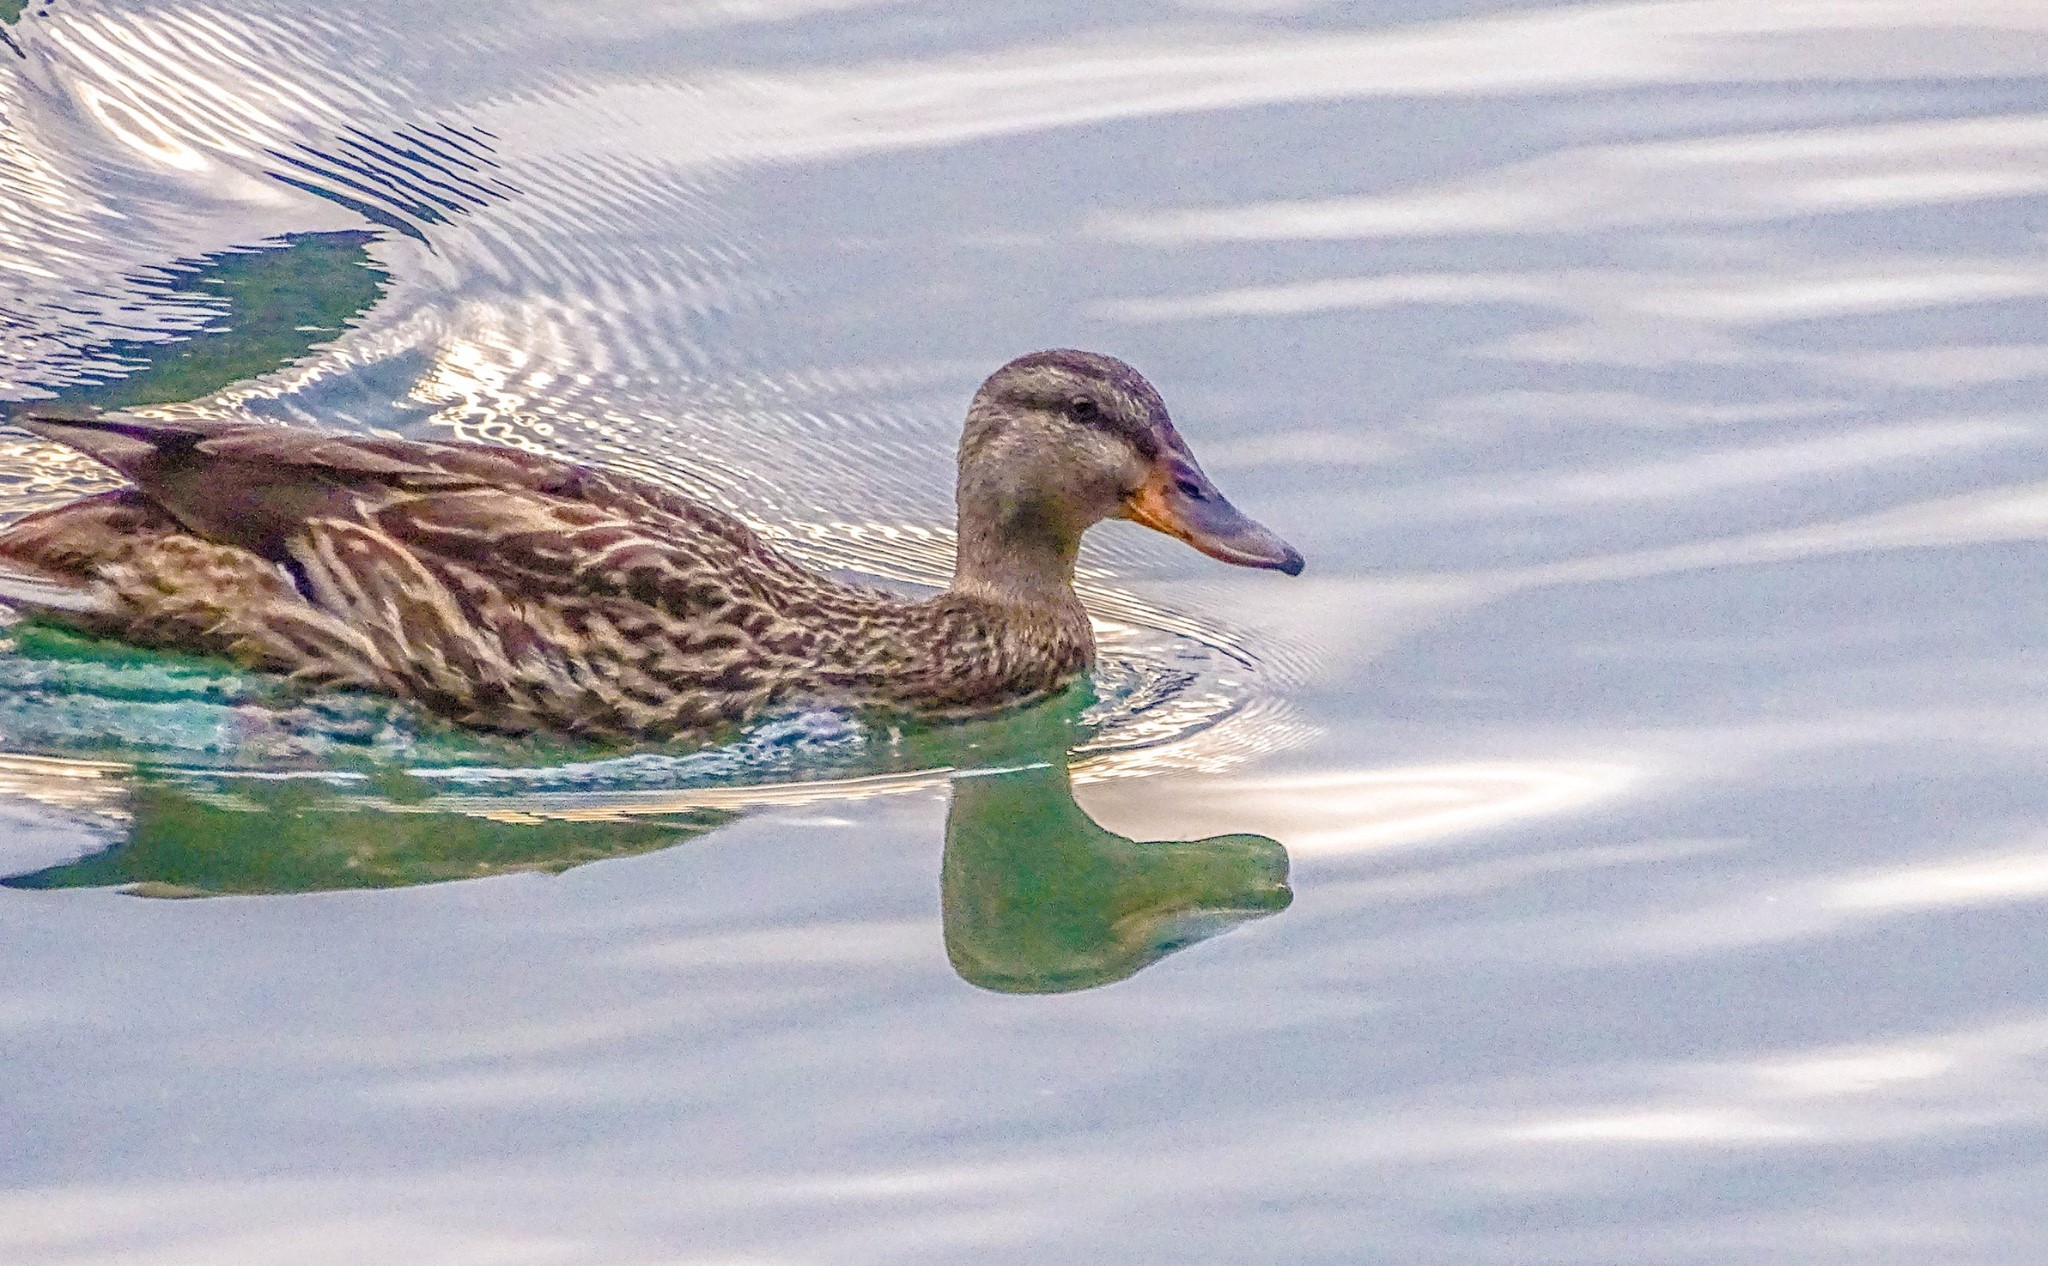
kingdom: Animalia
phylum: Chordata
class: Aves
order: Anseriformes
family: Anatidae
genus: Anas
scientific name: Anas platyrhynchos
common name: Mallard
